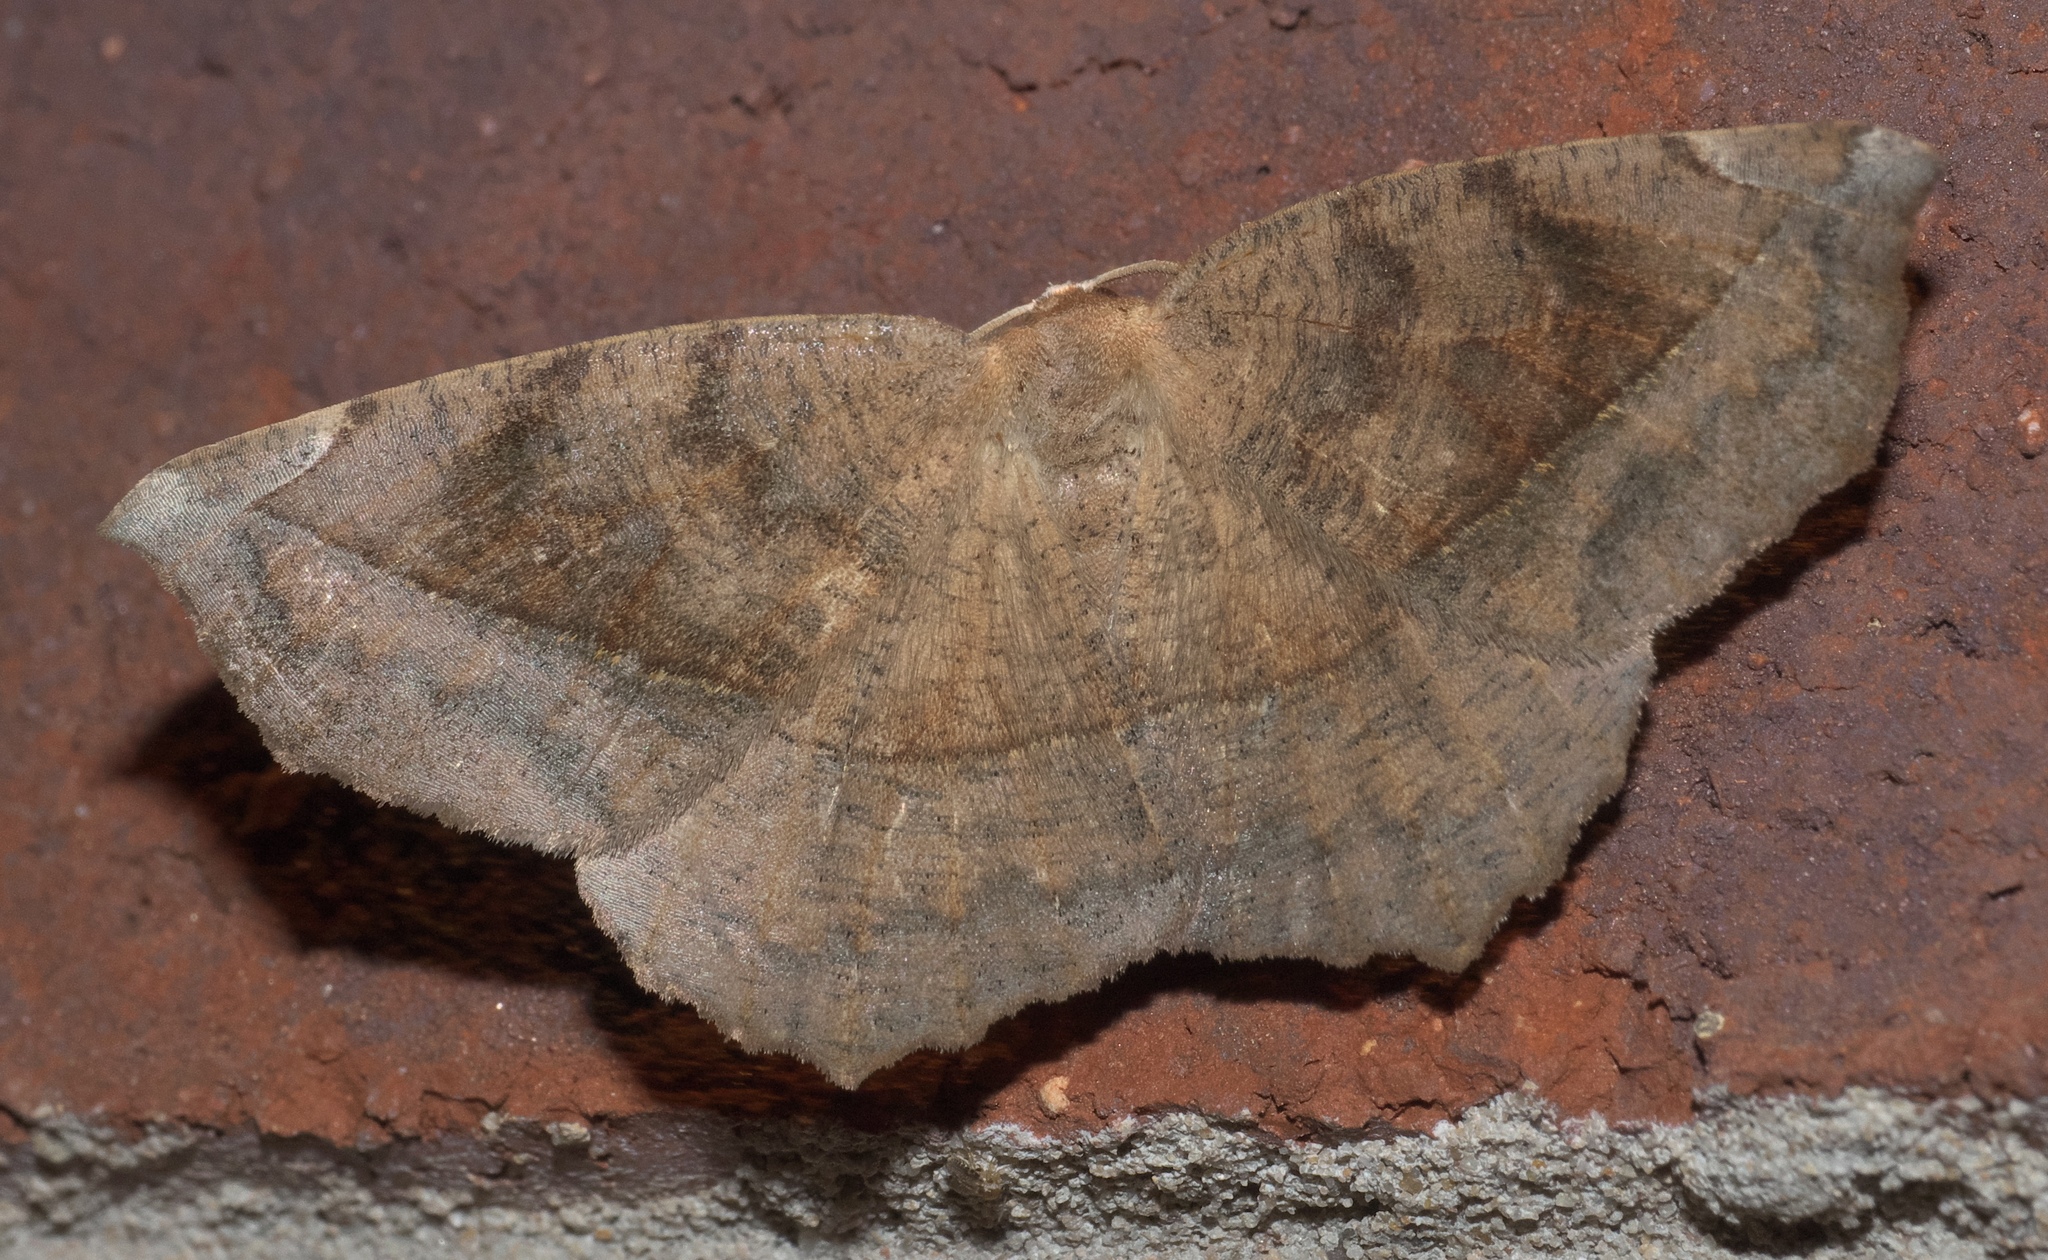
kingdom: Animalia
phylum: Arthropoda
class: Insecta
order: Lepidoptera
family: Geometridae
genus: Eutrapela
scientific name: Eutrapela clemataria
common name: Curved-toothed geometer
